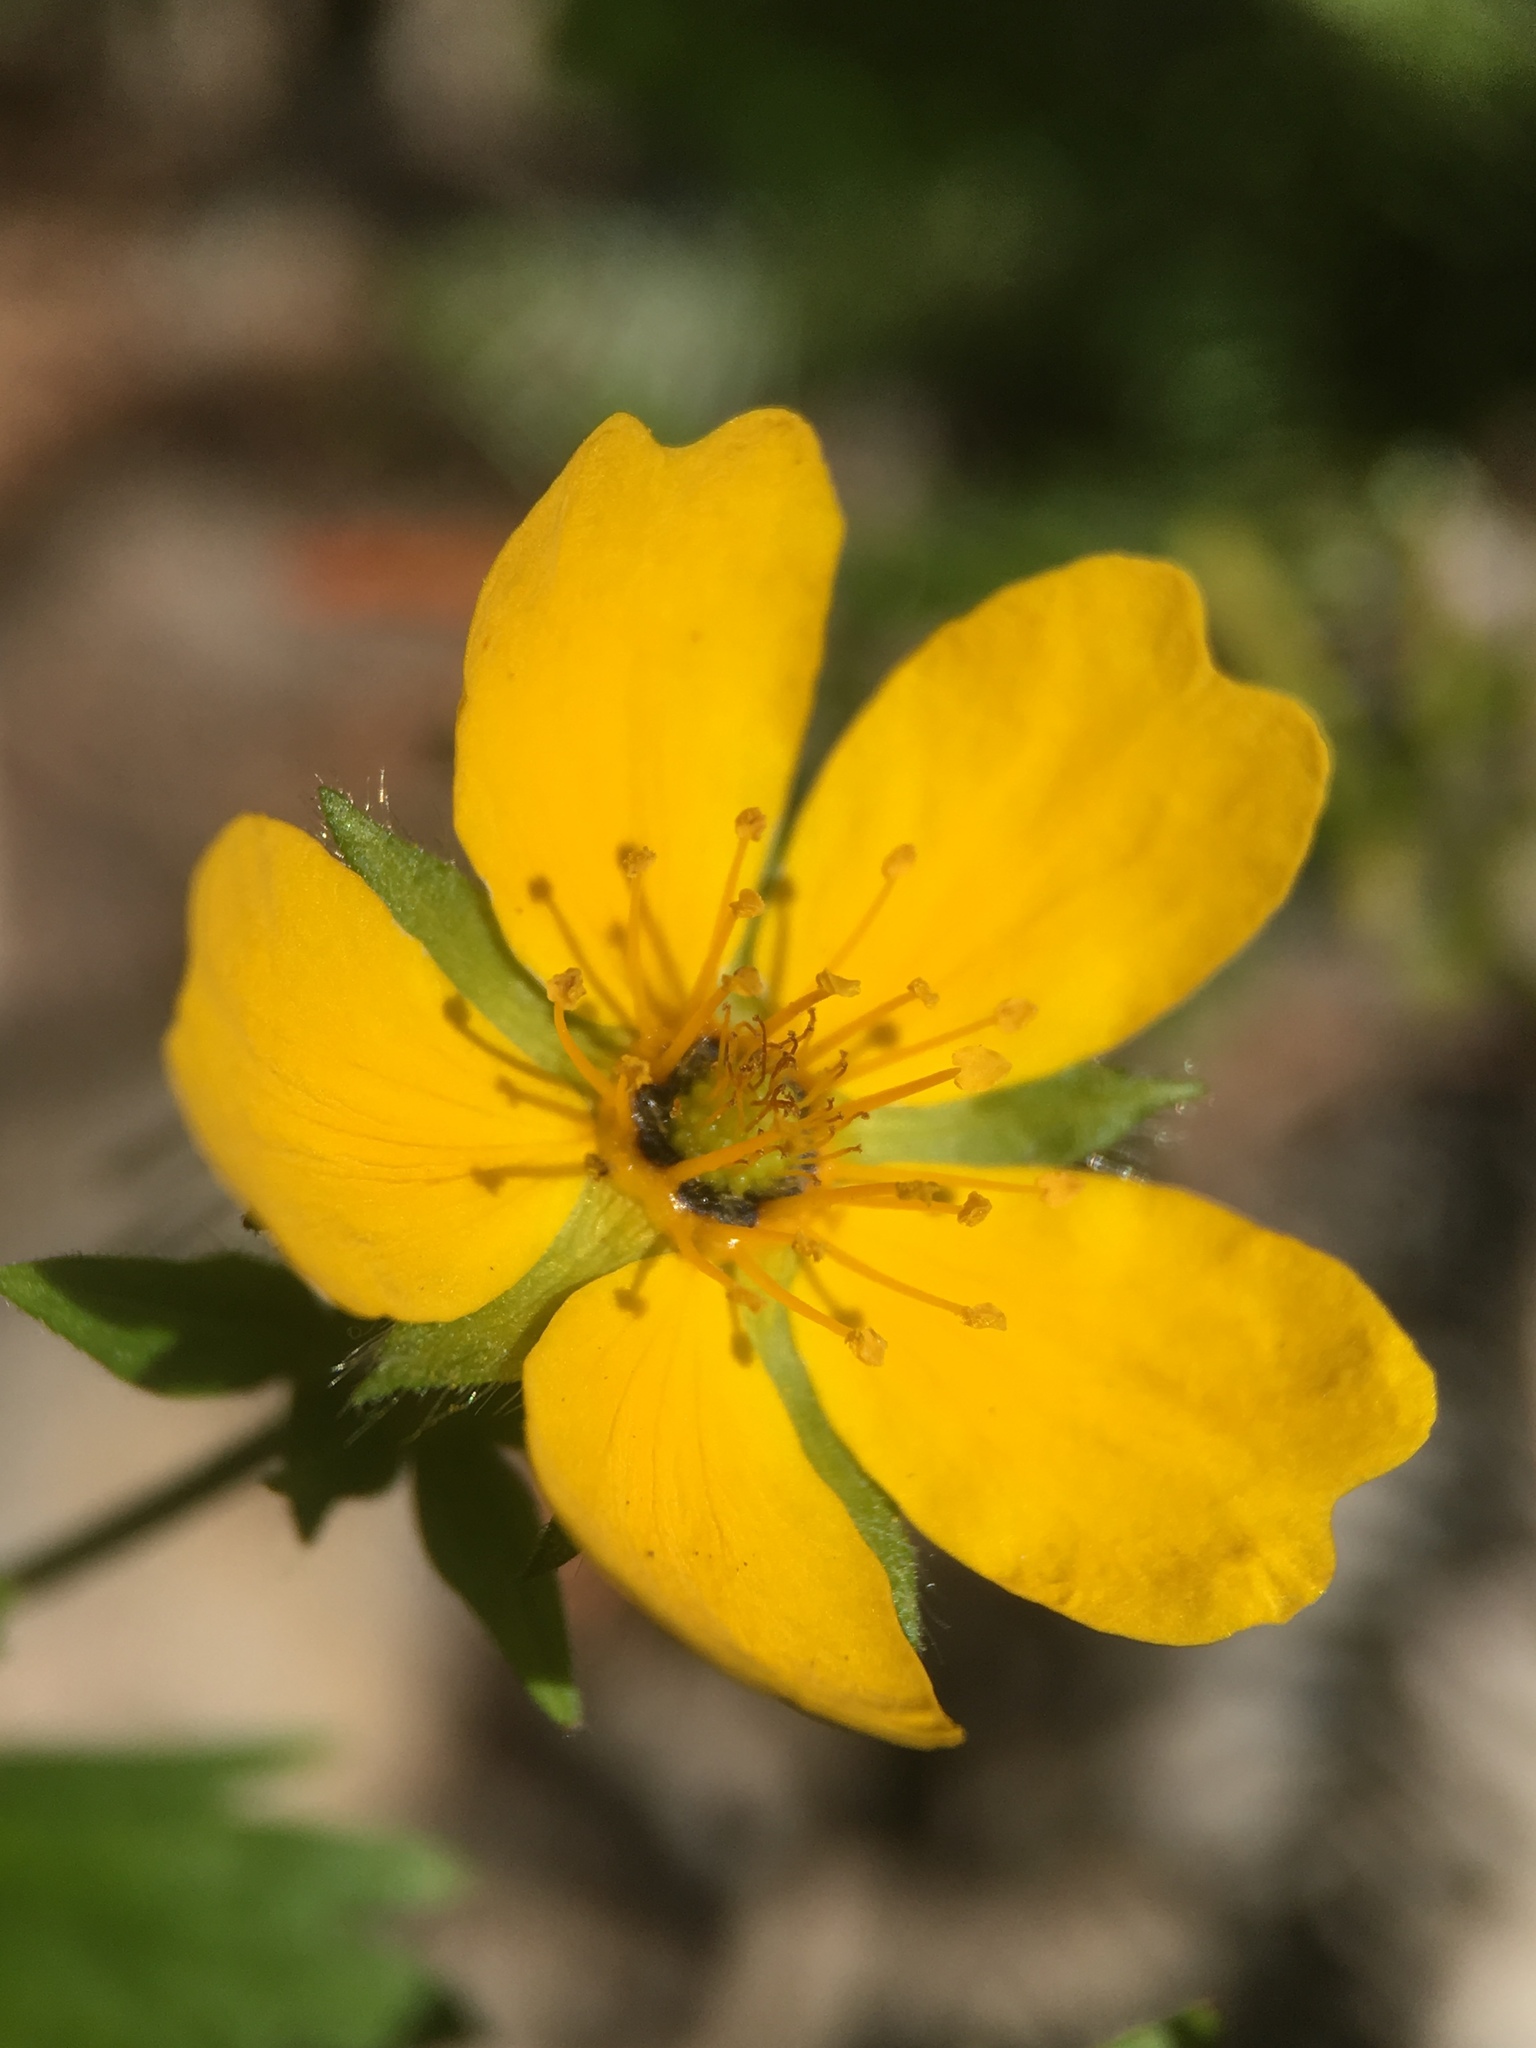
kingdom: Plantae
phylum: Tracheophyta
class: Magnoliopsida
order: Rosales
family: Rosaceae
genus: Potentilla
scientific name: Potentilla flabellifolia
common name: Mount rainier cinquefoil
